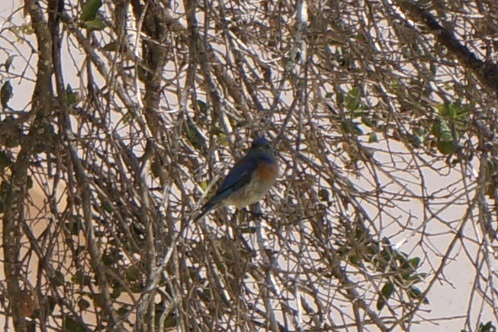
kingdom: Animalia
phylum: Chordata
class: Aves
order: Passeriformes
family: Turdidae
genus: Sialia
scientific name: Sialia mexicana
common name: Western bluebird
